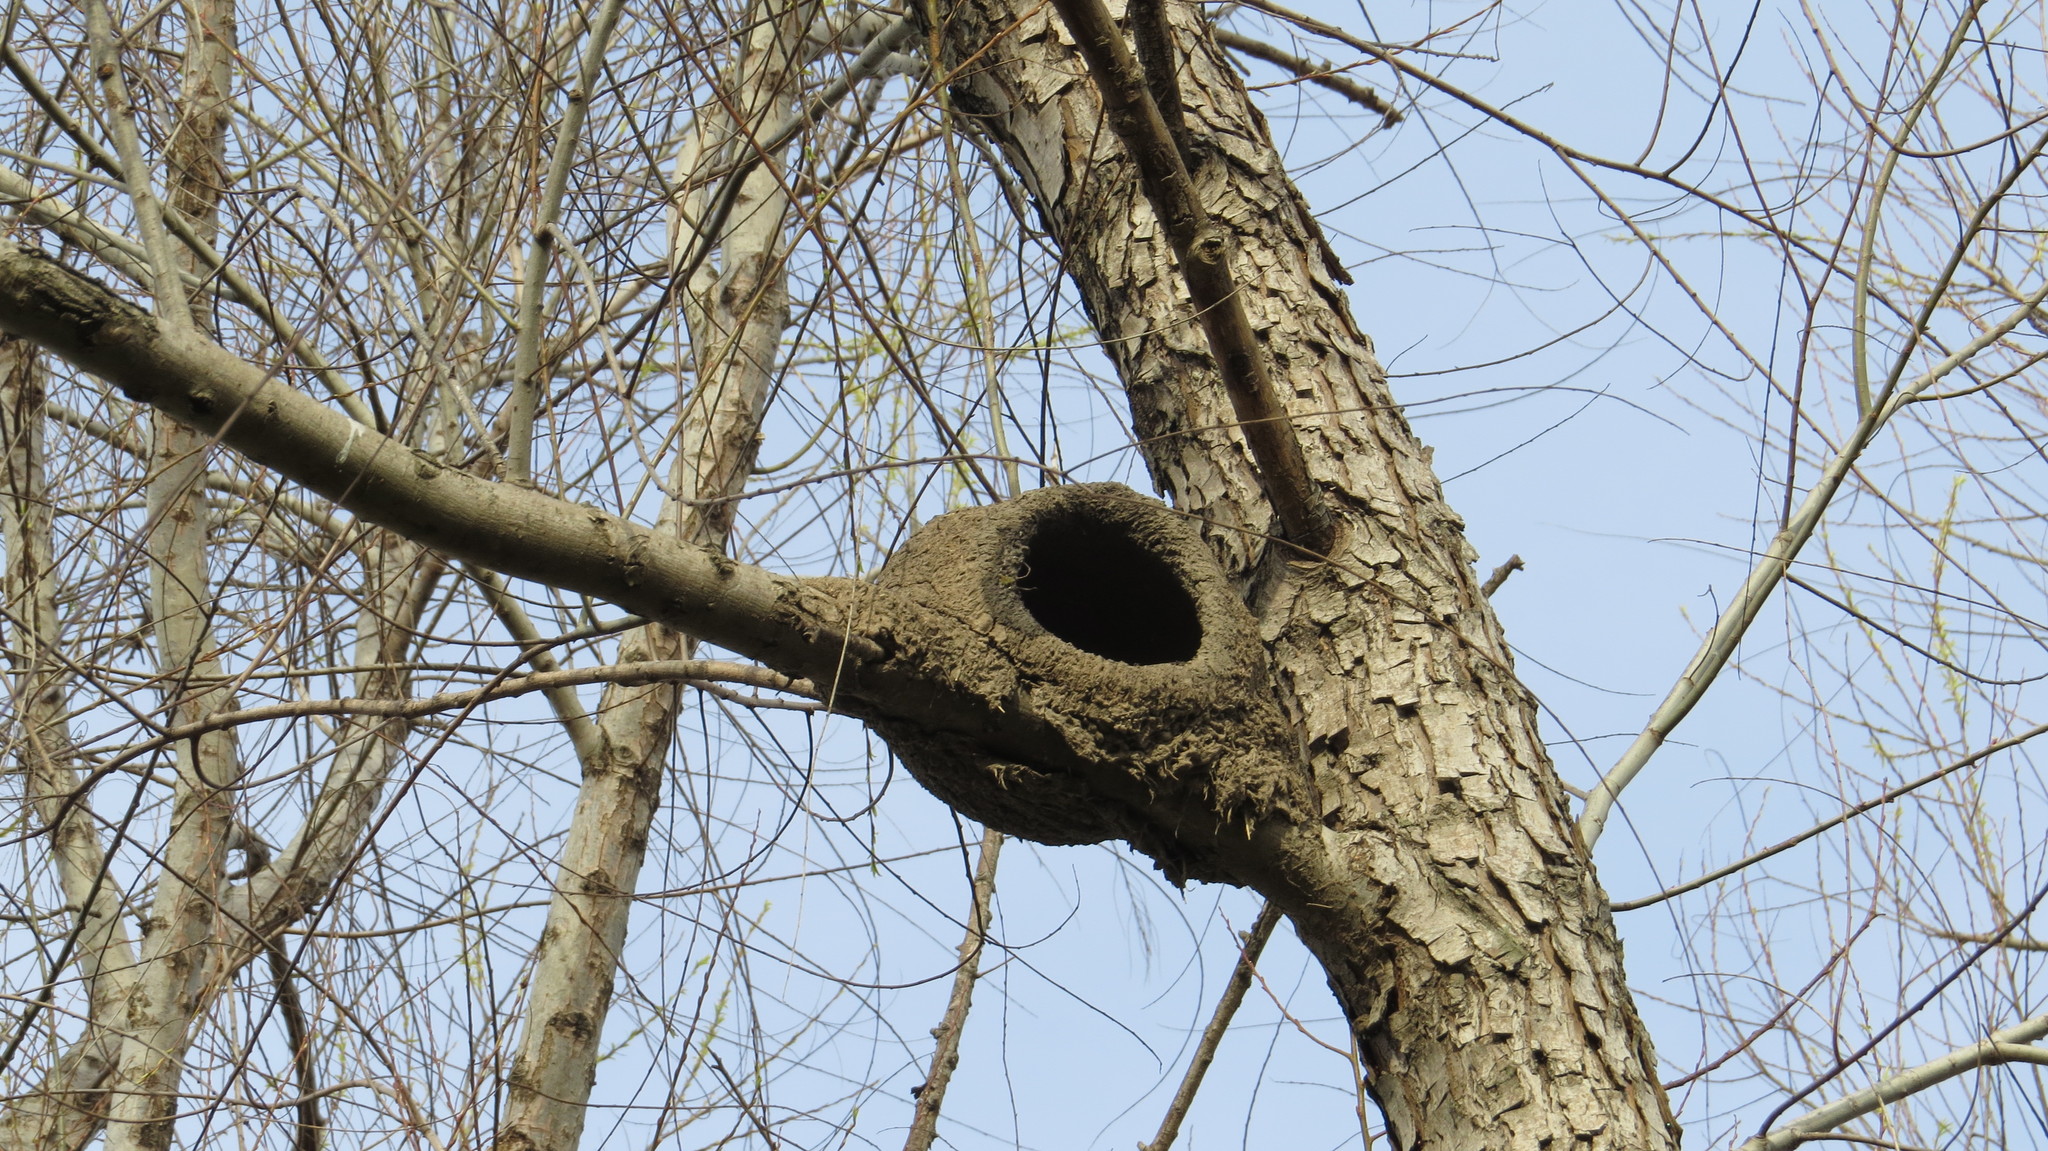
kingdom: Animalia
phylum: Chordata
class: Aves
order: Passeriformes
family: Furnariidae
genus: Furnarius
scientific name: Furnarius rufus
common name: Rufous hornero
